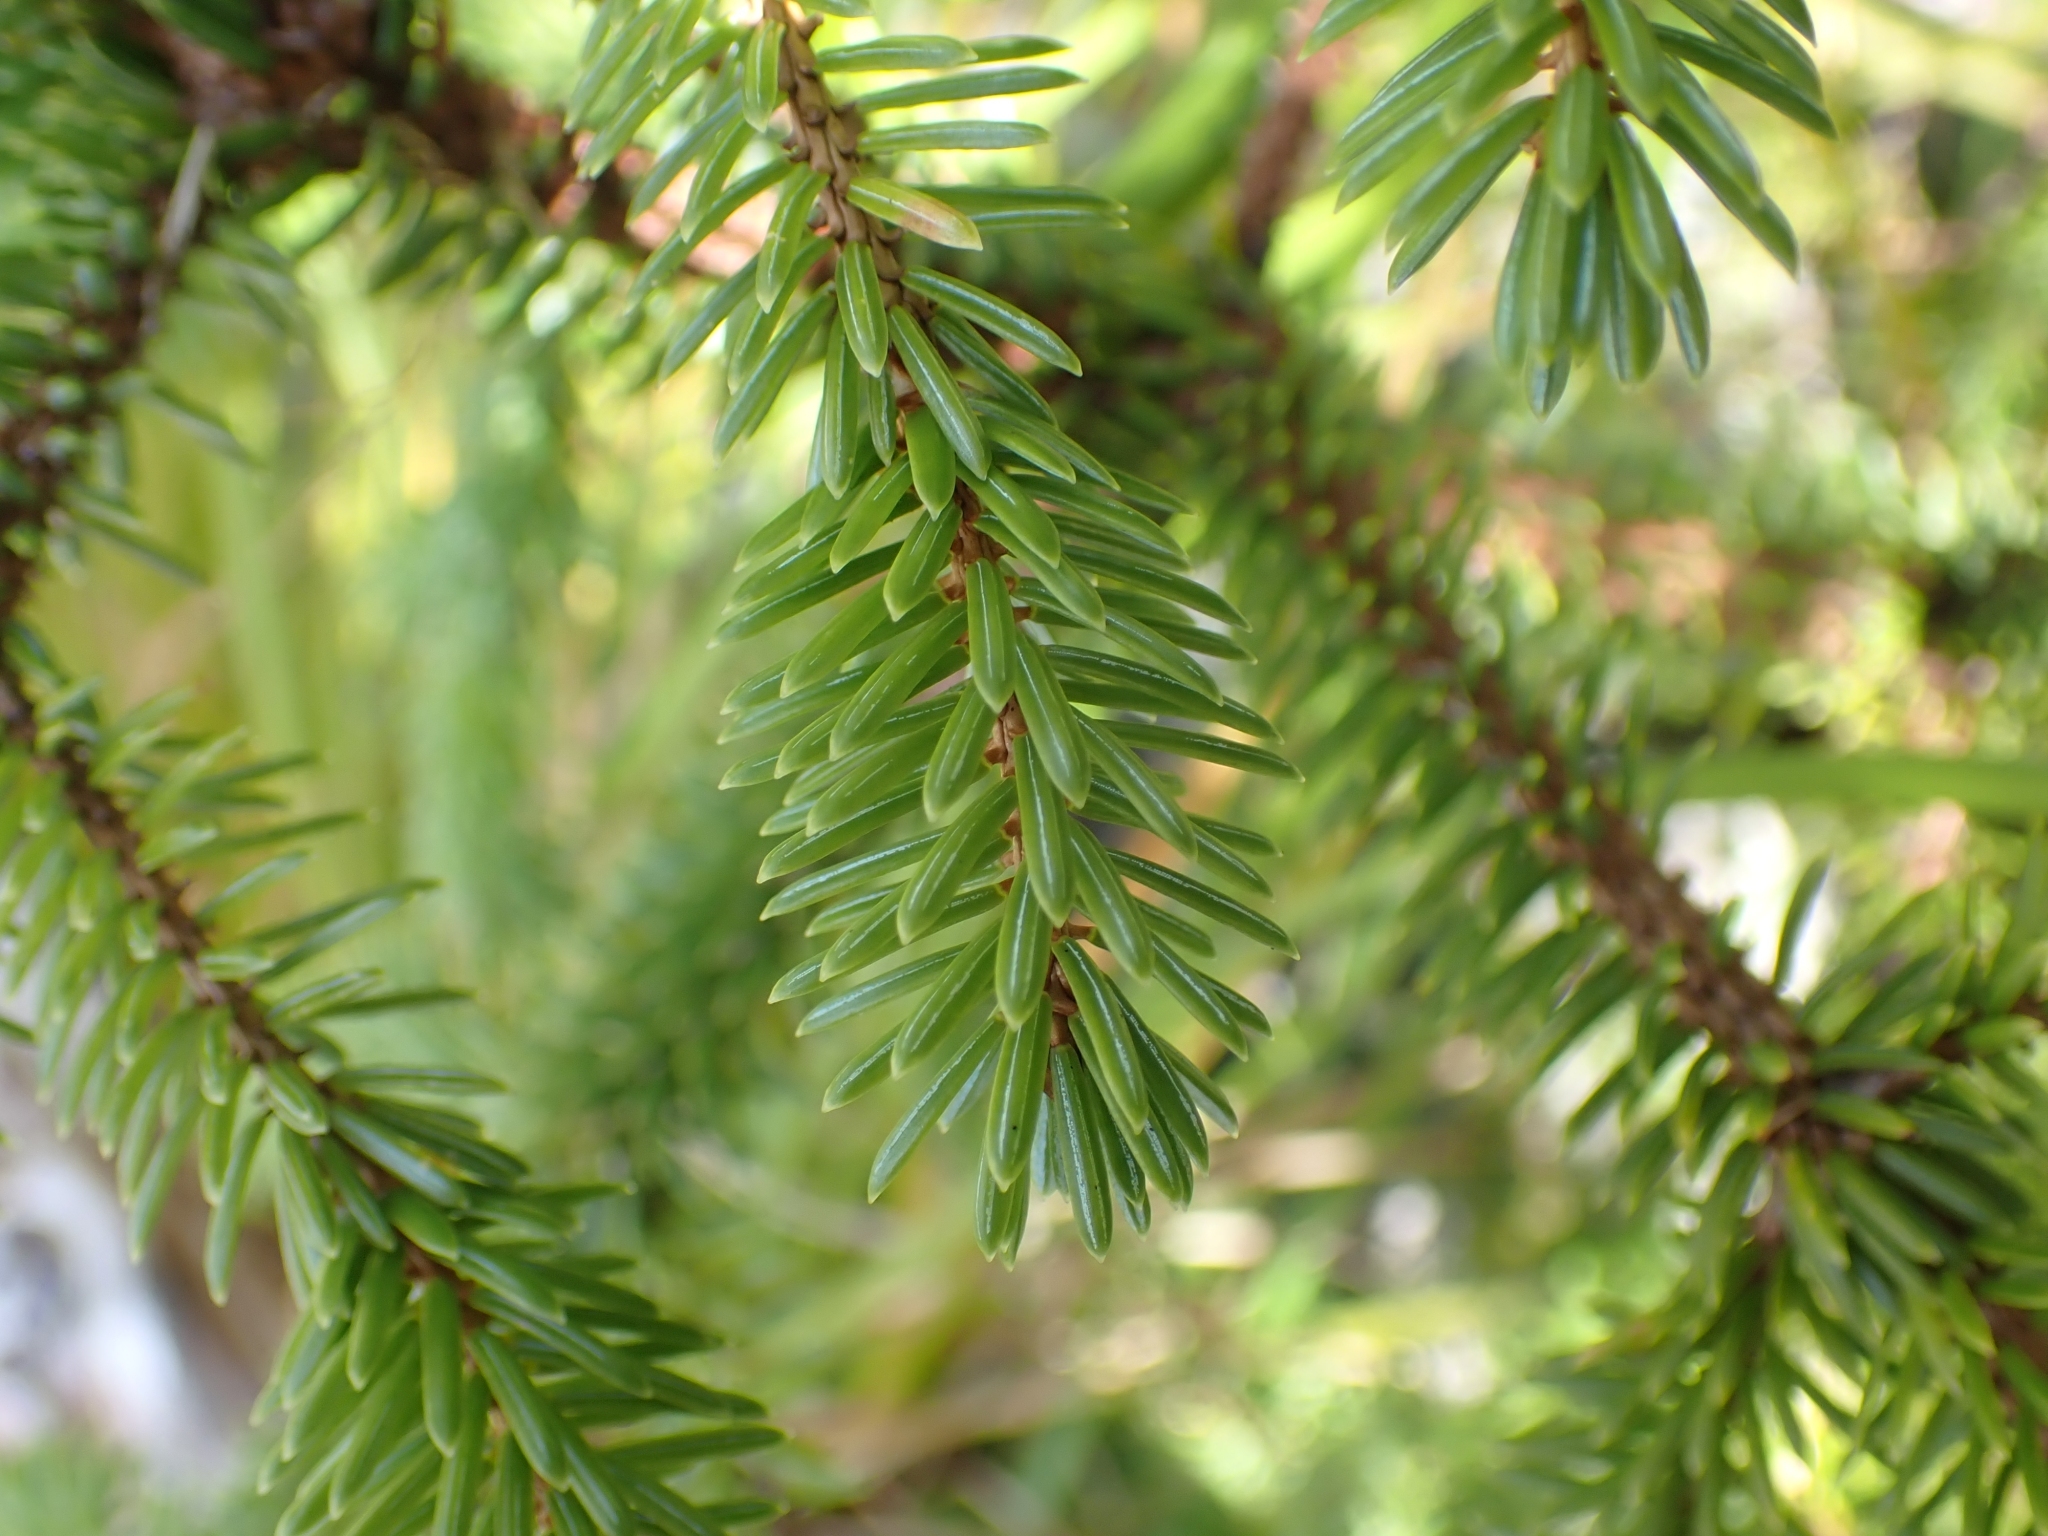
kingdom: Plantae
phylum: Tracheophyta
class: Pinopsida
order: Pinales
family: Pinaceae
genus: Picea
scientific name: Picea sitchensis
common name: Sitka spruce
